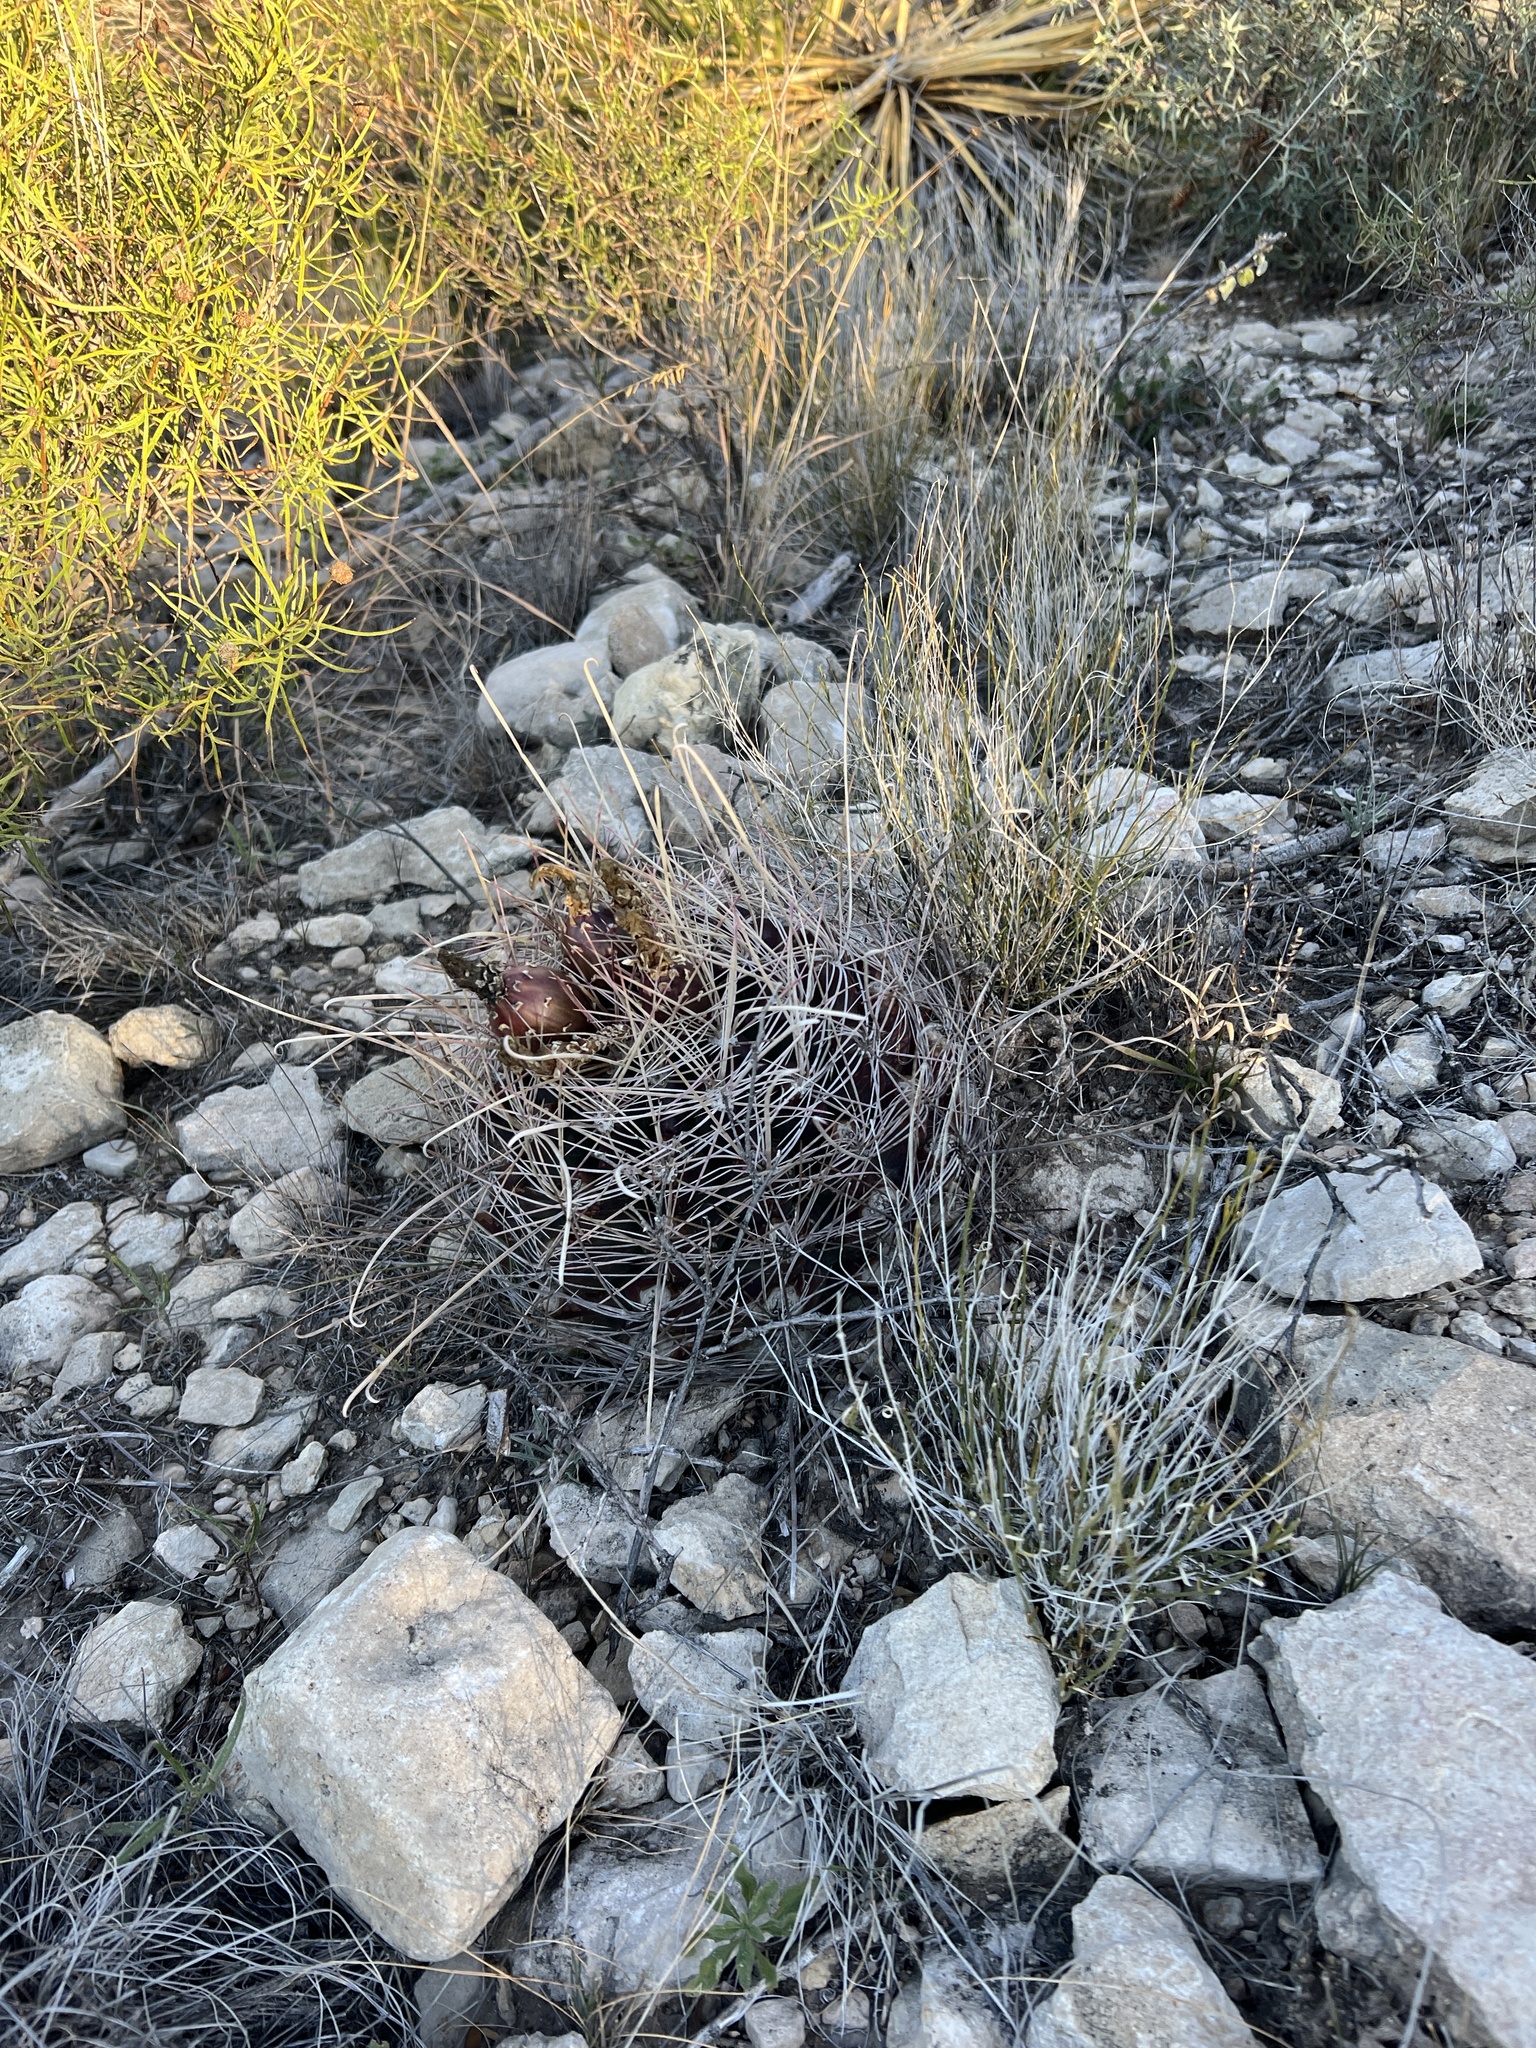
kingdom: Plantae
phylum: Tracheophyta
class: Magnoliopsida
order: Caryophyllales
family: Cactaceae
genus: Bisnaga
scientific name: Bisnaga hamatacantha
